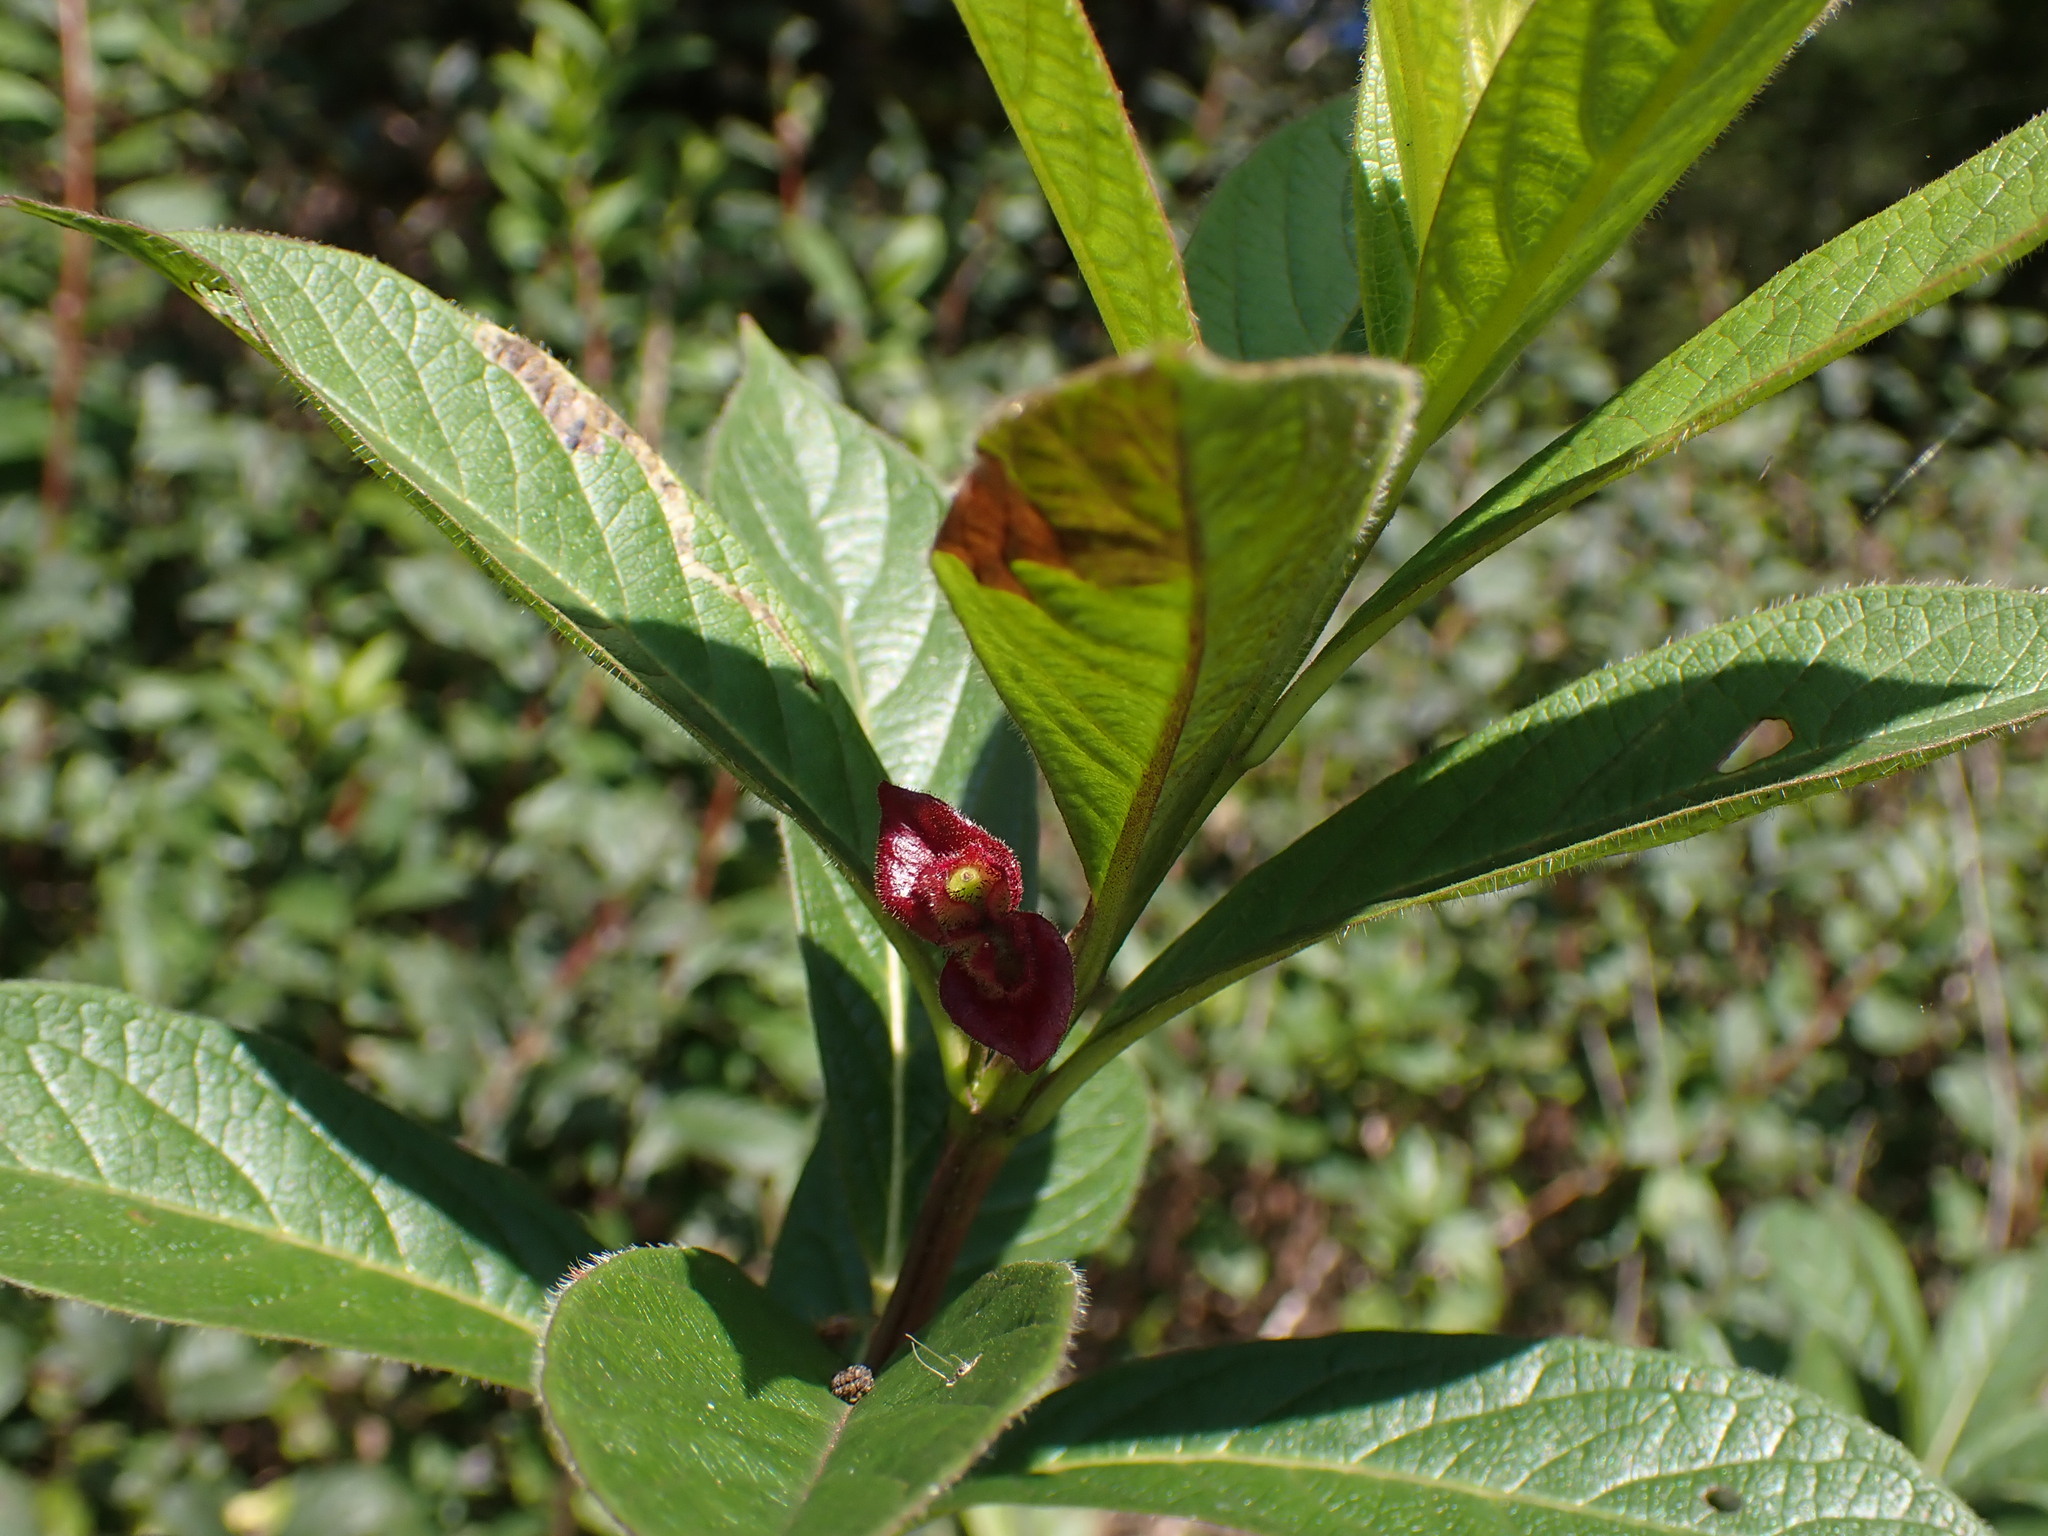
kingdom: Plantae
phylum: Tracheophyta
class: Magnoliopsida
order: Dipsacales
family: Caprifoliaceae
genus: Lonicera
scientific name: Lonicera involucrata
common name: Californian honeysuckle
